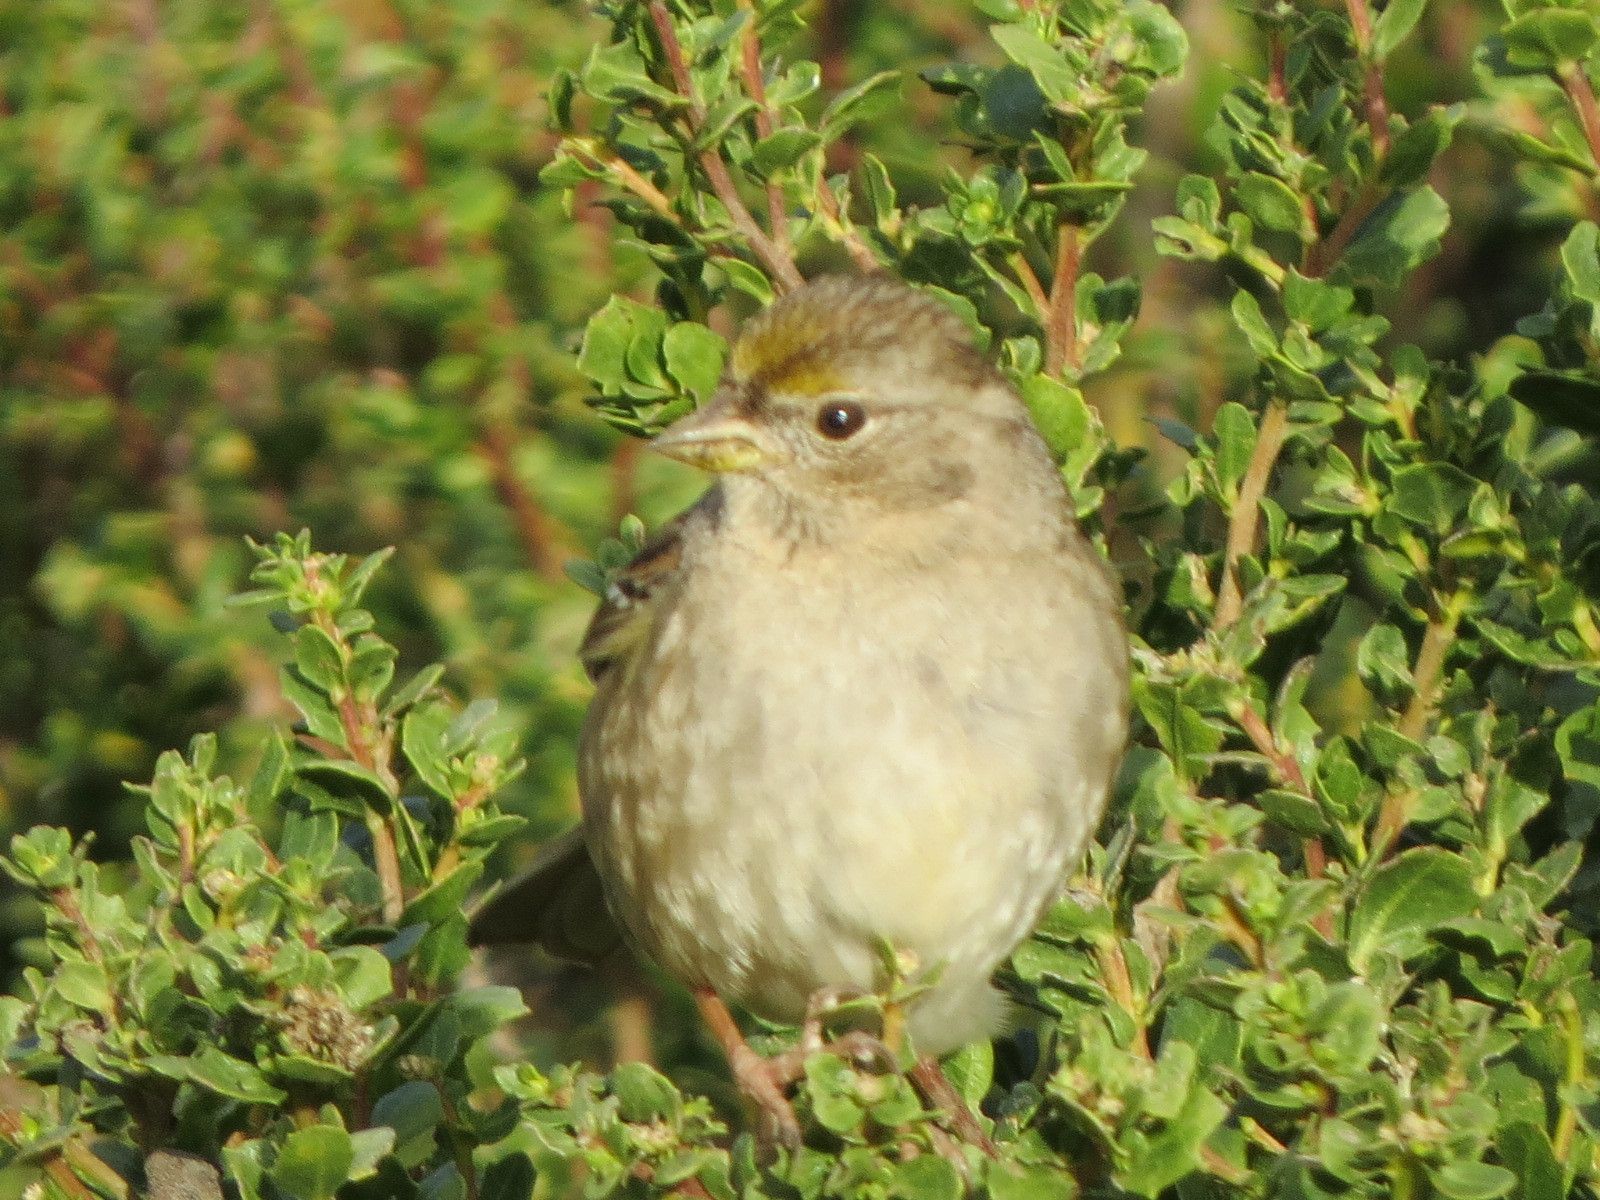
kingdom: Animalia
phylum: Chordata
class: Aves
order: Passeriformes
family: Passerellidae
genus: Zonotrichia
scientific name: Zonotrichia atricapilla
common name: Golden-crowned sparrow
